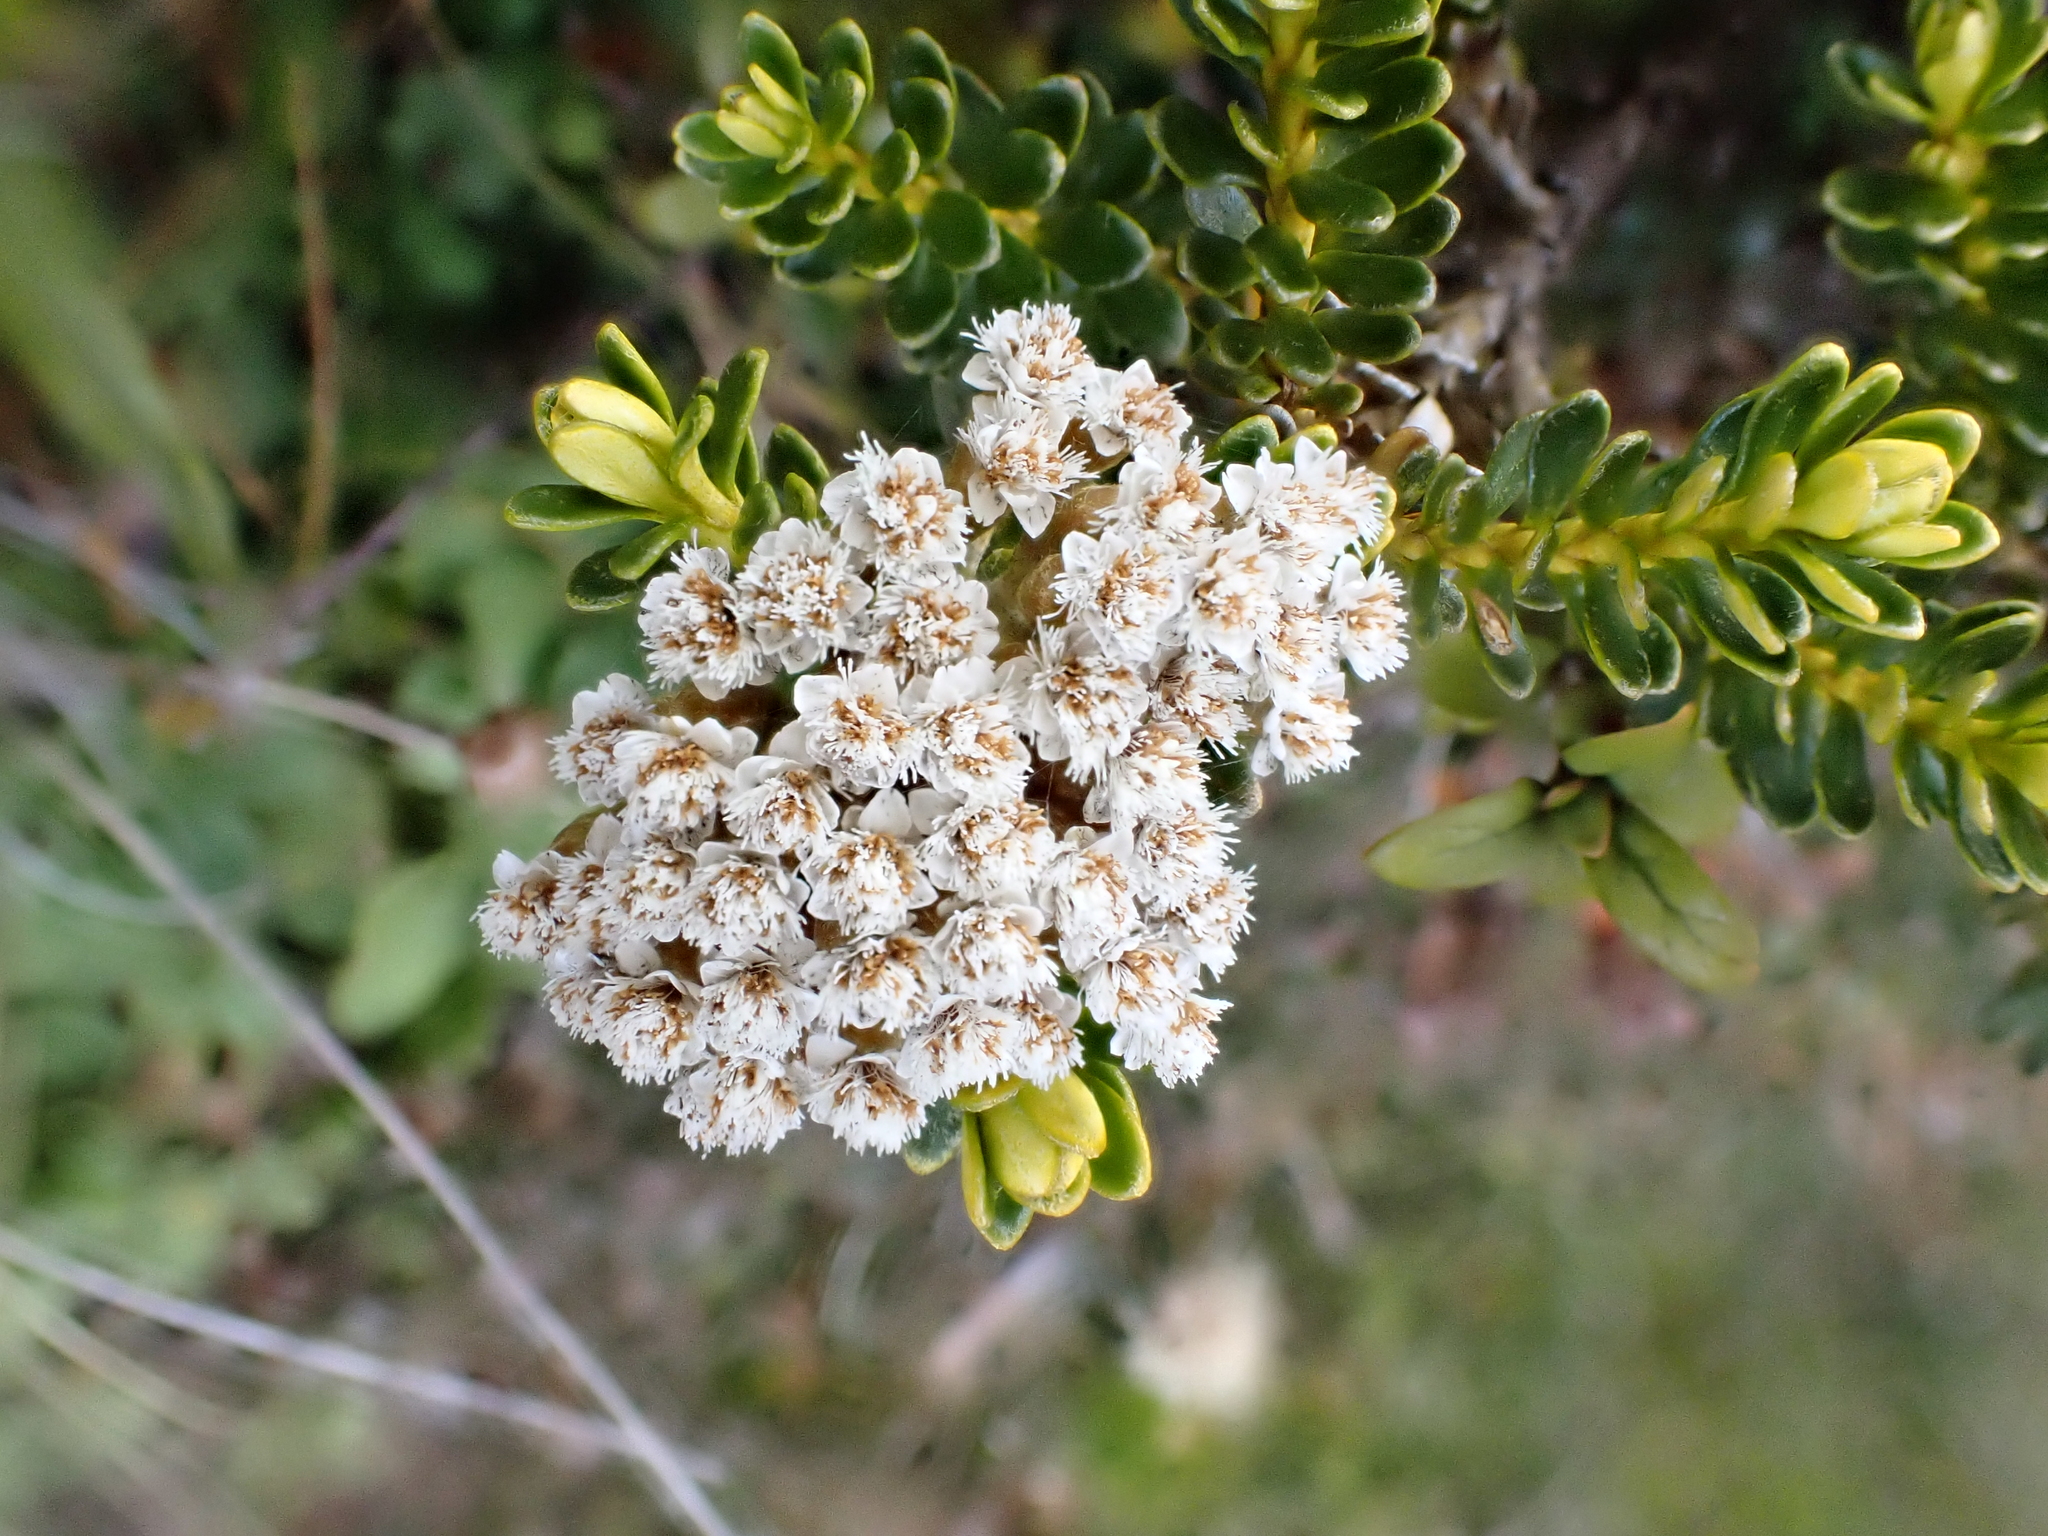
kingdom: Plantae
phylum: Tracheophyta
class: Magnoliopsida
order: Asterales
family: Asteraceae
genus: Ozothamnus
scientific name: Ozothamnus leptophyllus
